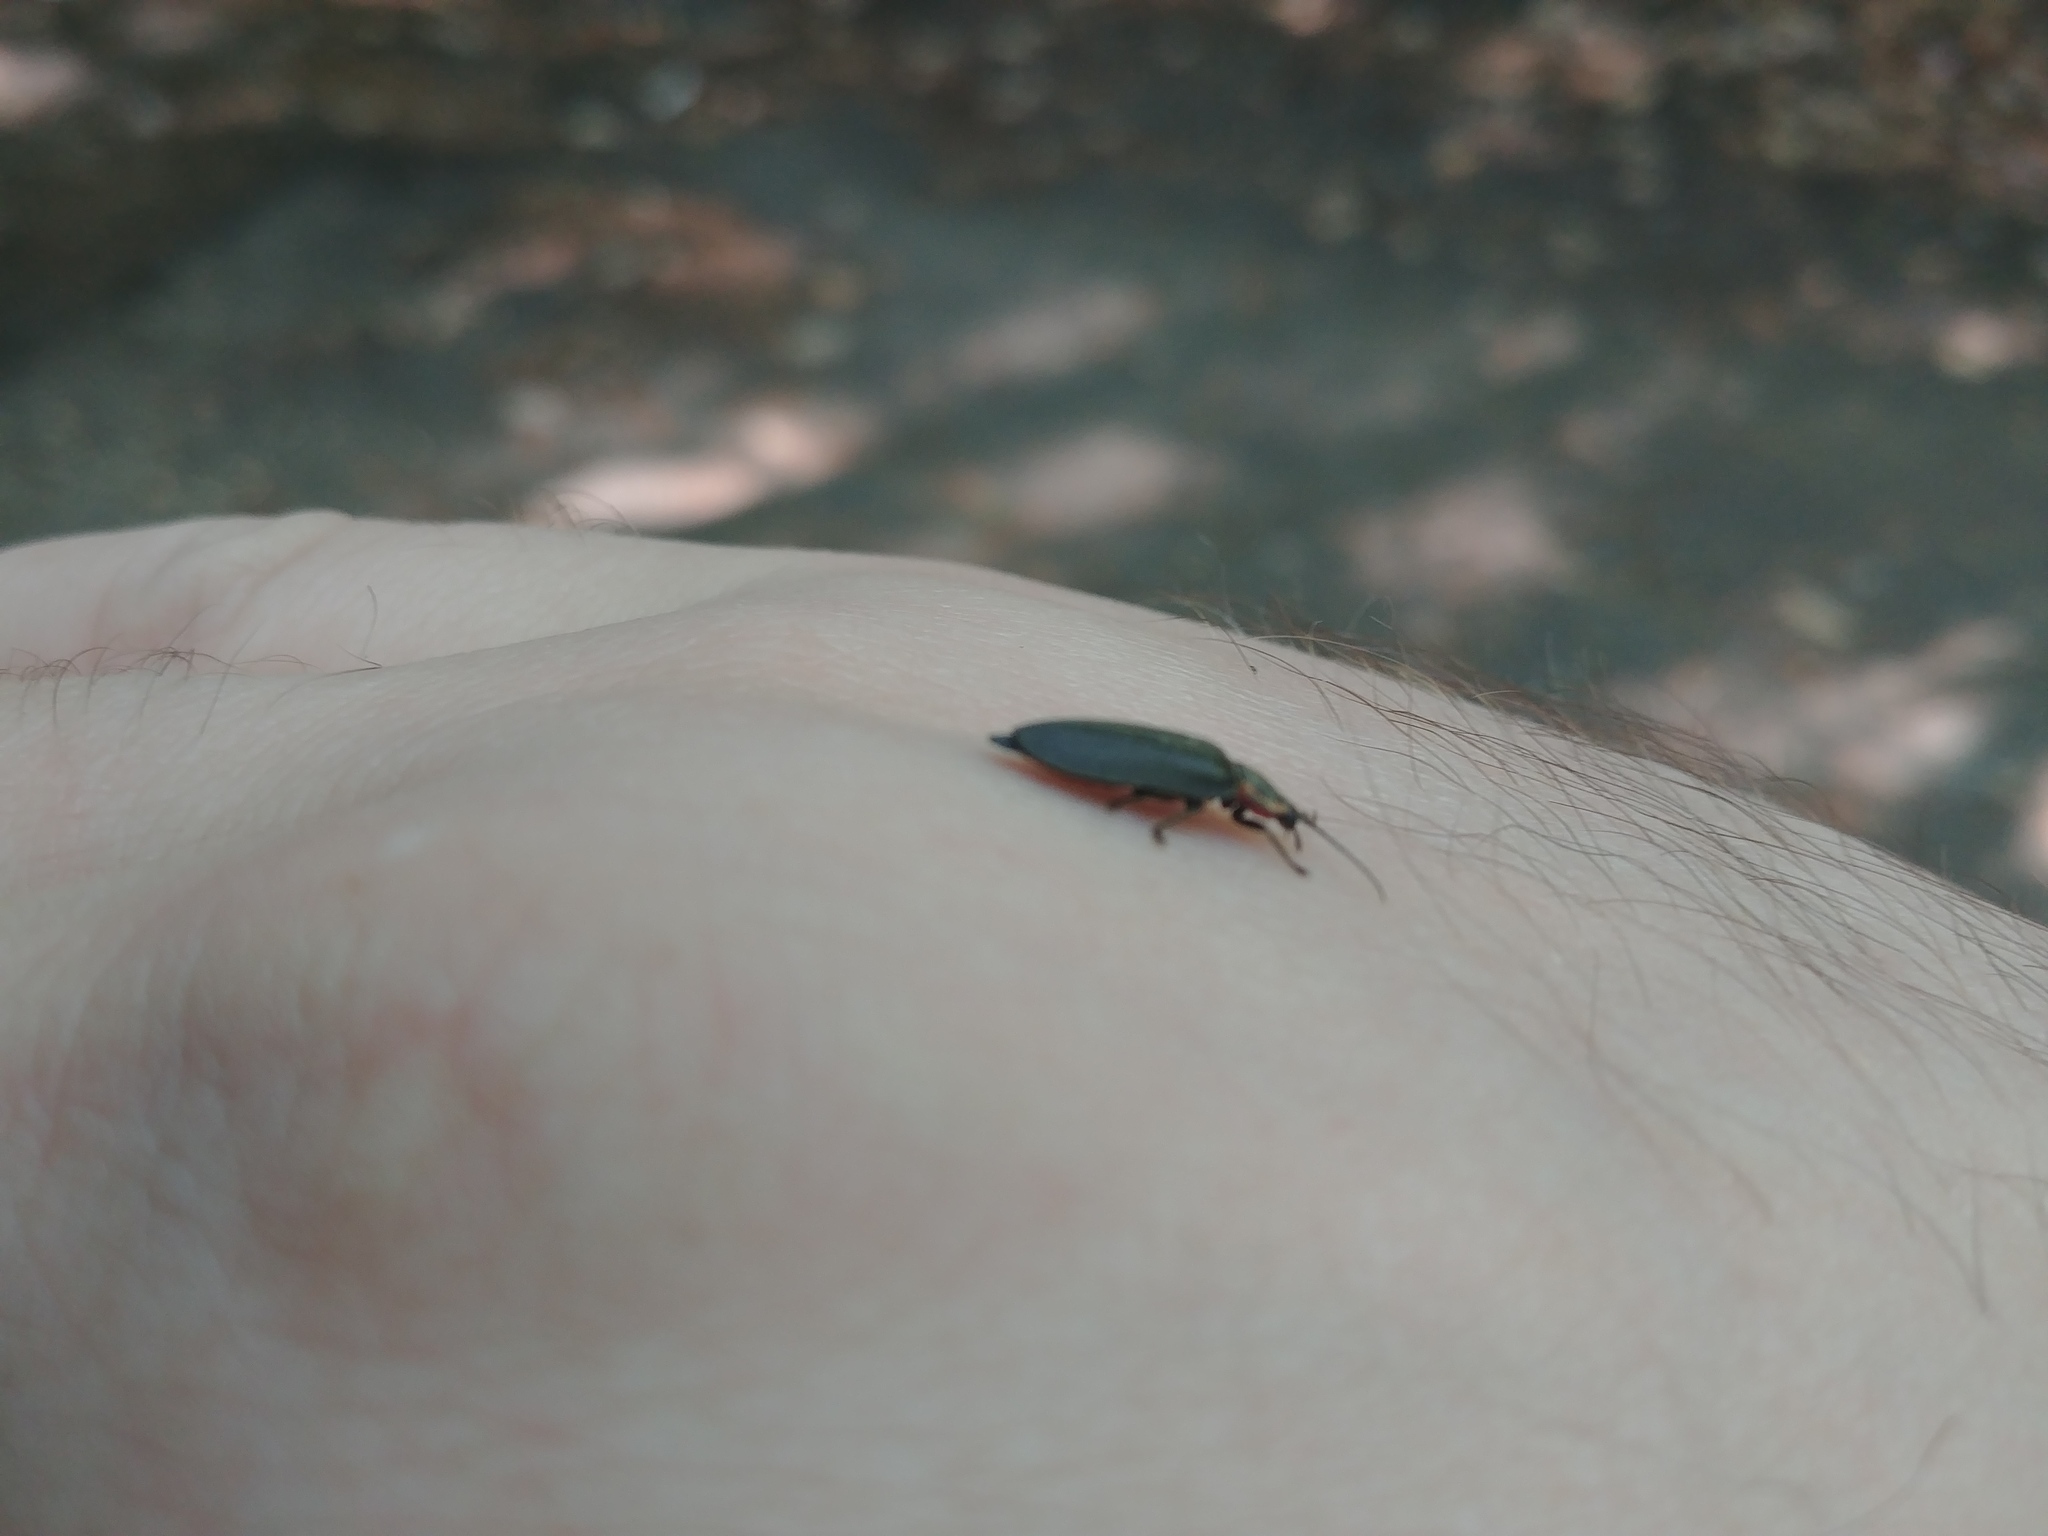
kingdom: Animalia
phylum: Arthropoda
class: Insecta
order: Coleoptera
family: Lampyridae
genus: Photinus
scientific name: Photinus corrusca
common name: Winter firefly
